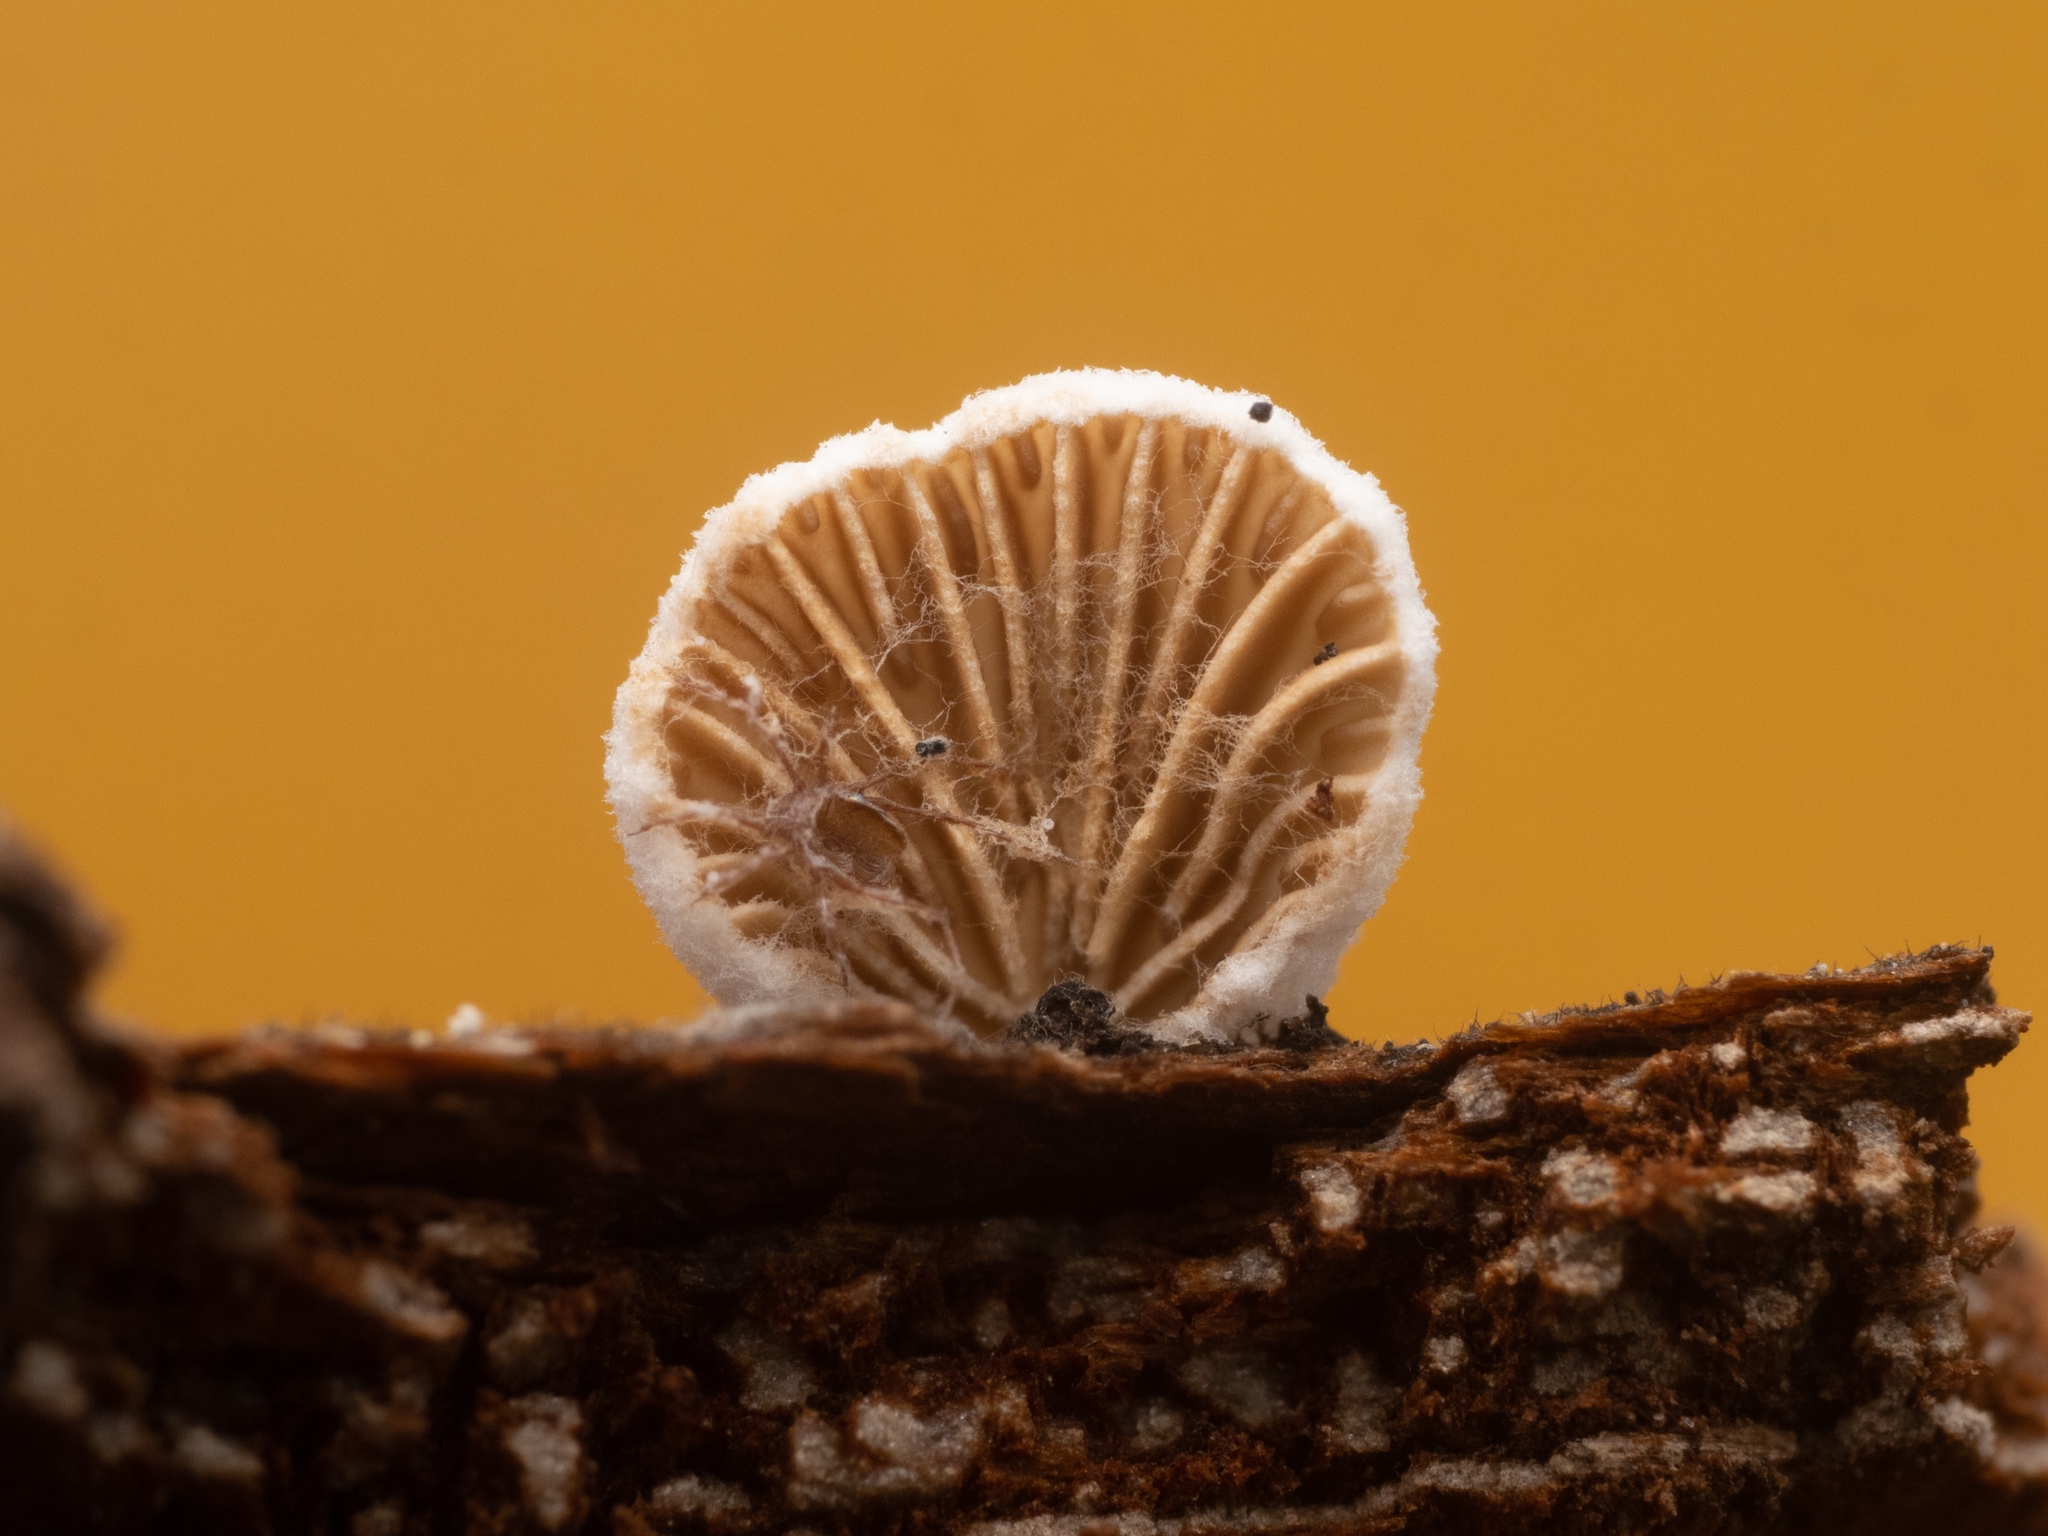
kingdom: Fungi
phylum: Basidiomycota
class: Agaricomycetes
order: Agaricales
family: Schizophyllaceae
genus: Schizophyllum
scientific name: Schizophyllum commune
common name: Common porecrust
